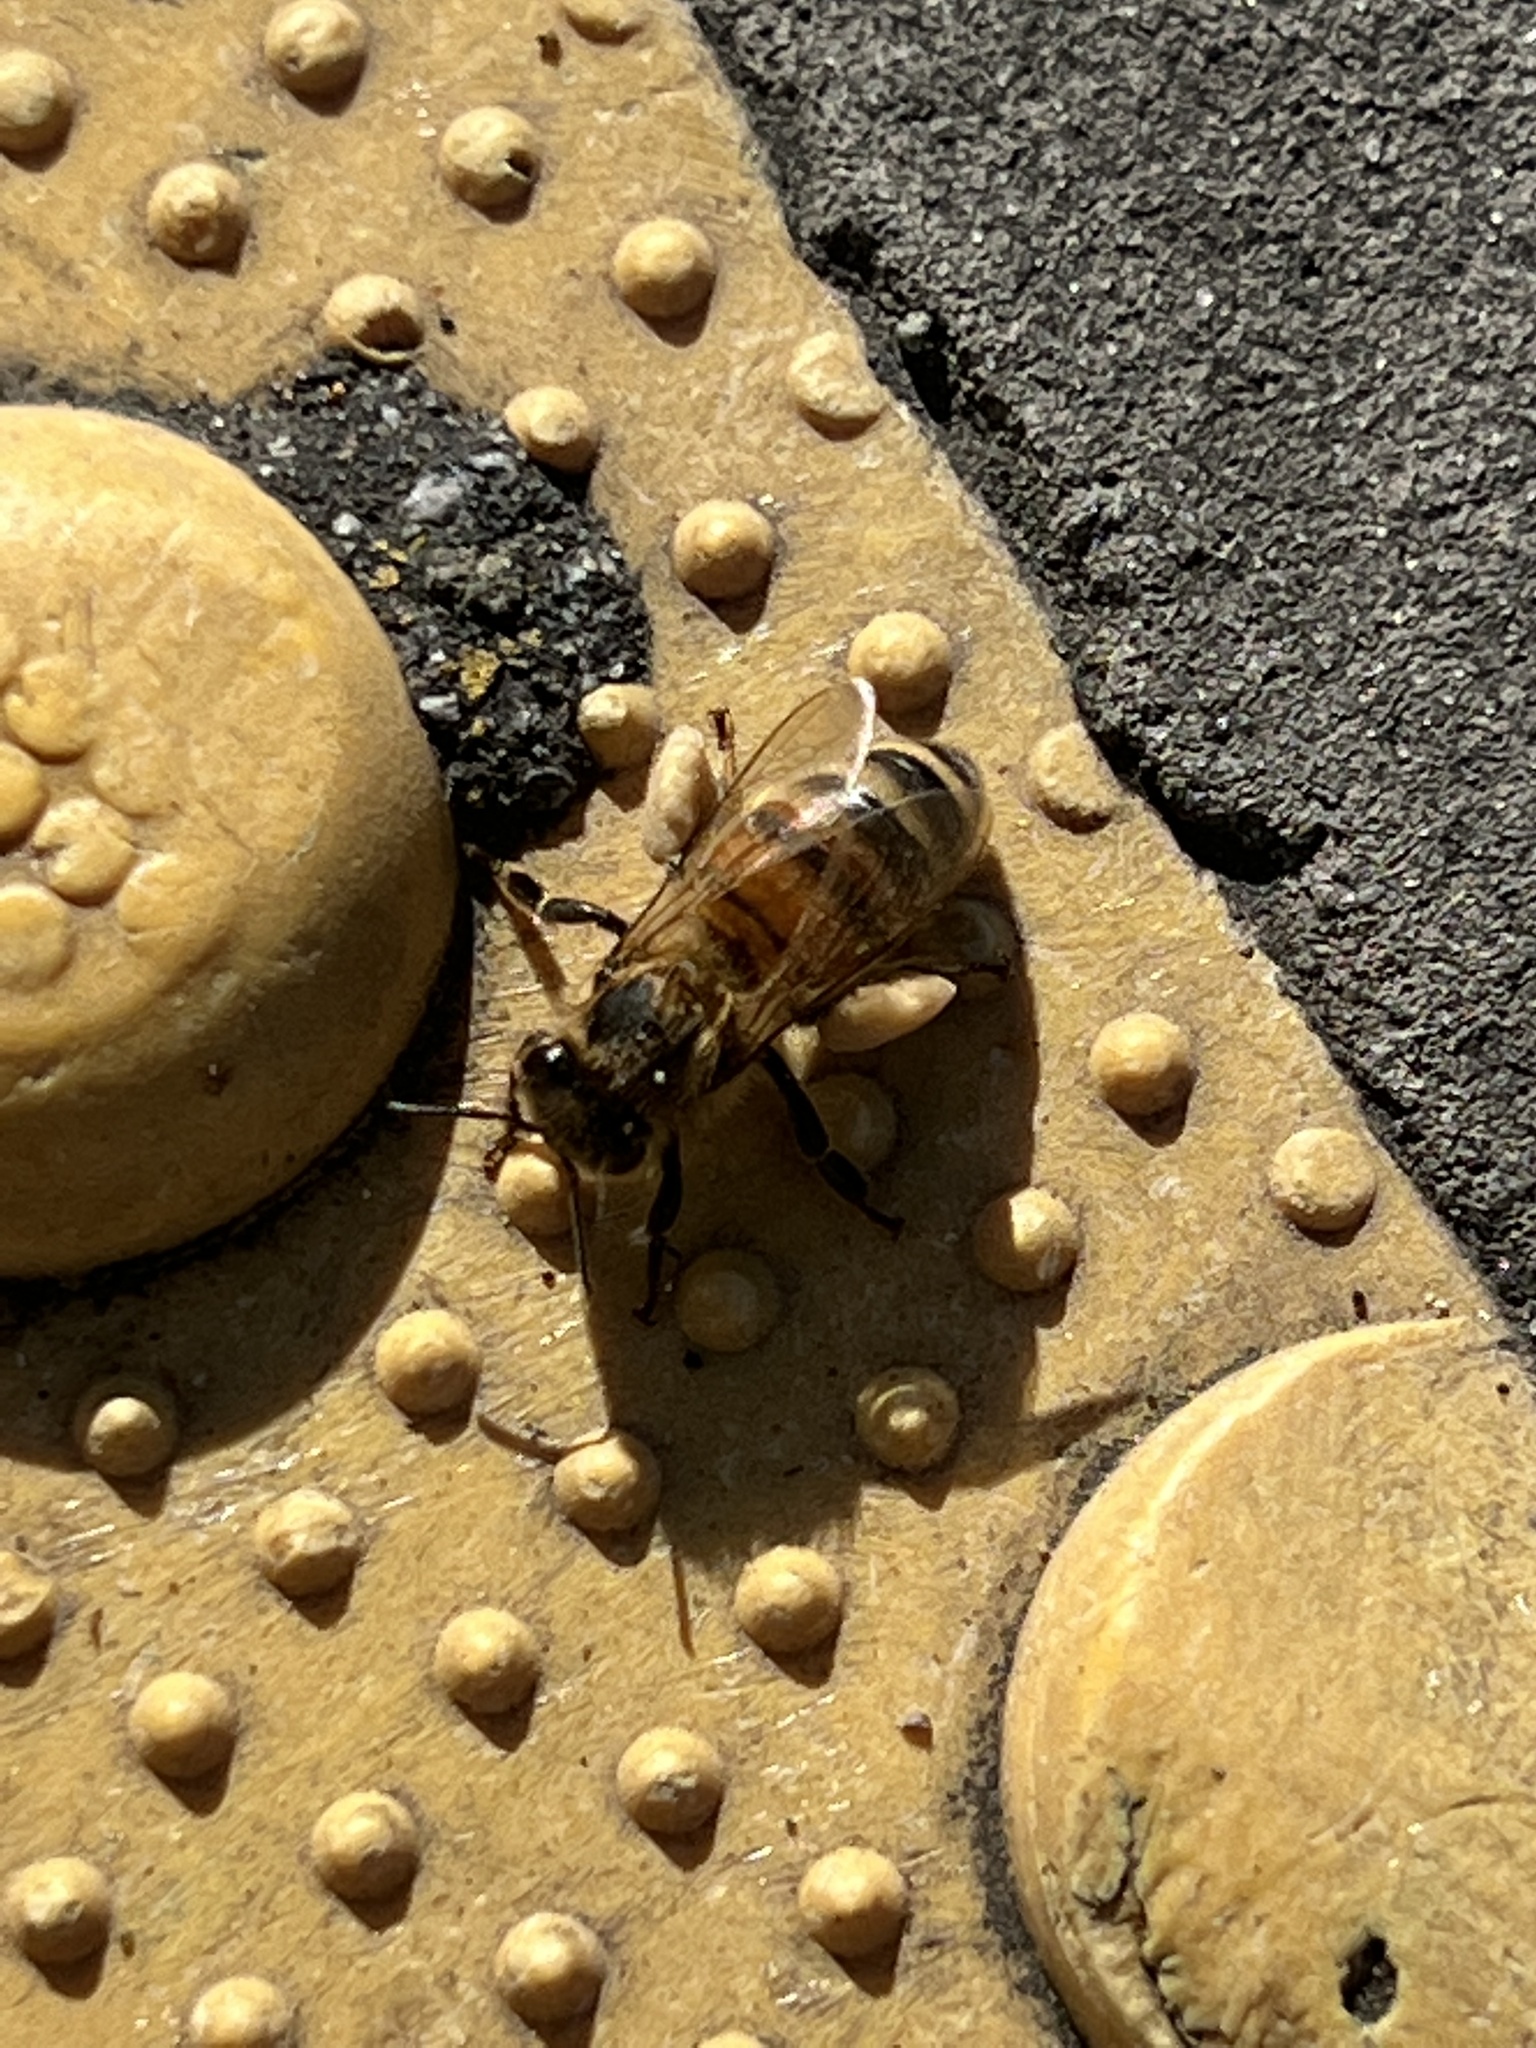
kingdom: Animalia
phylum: Arthropoda
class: Insecta
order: Hymenoptera
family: Apidae
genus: Apis
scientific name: Apis mellifera
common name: Honey bee
